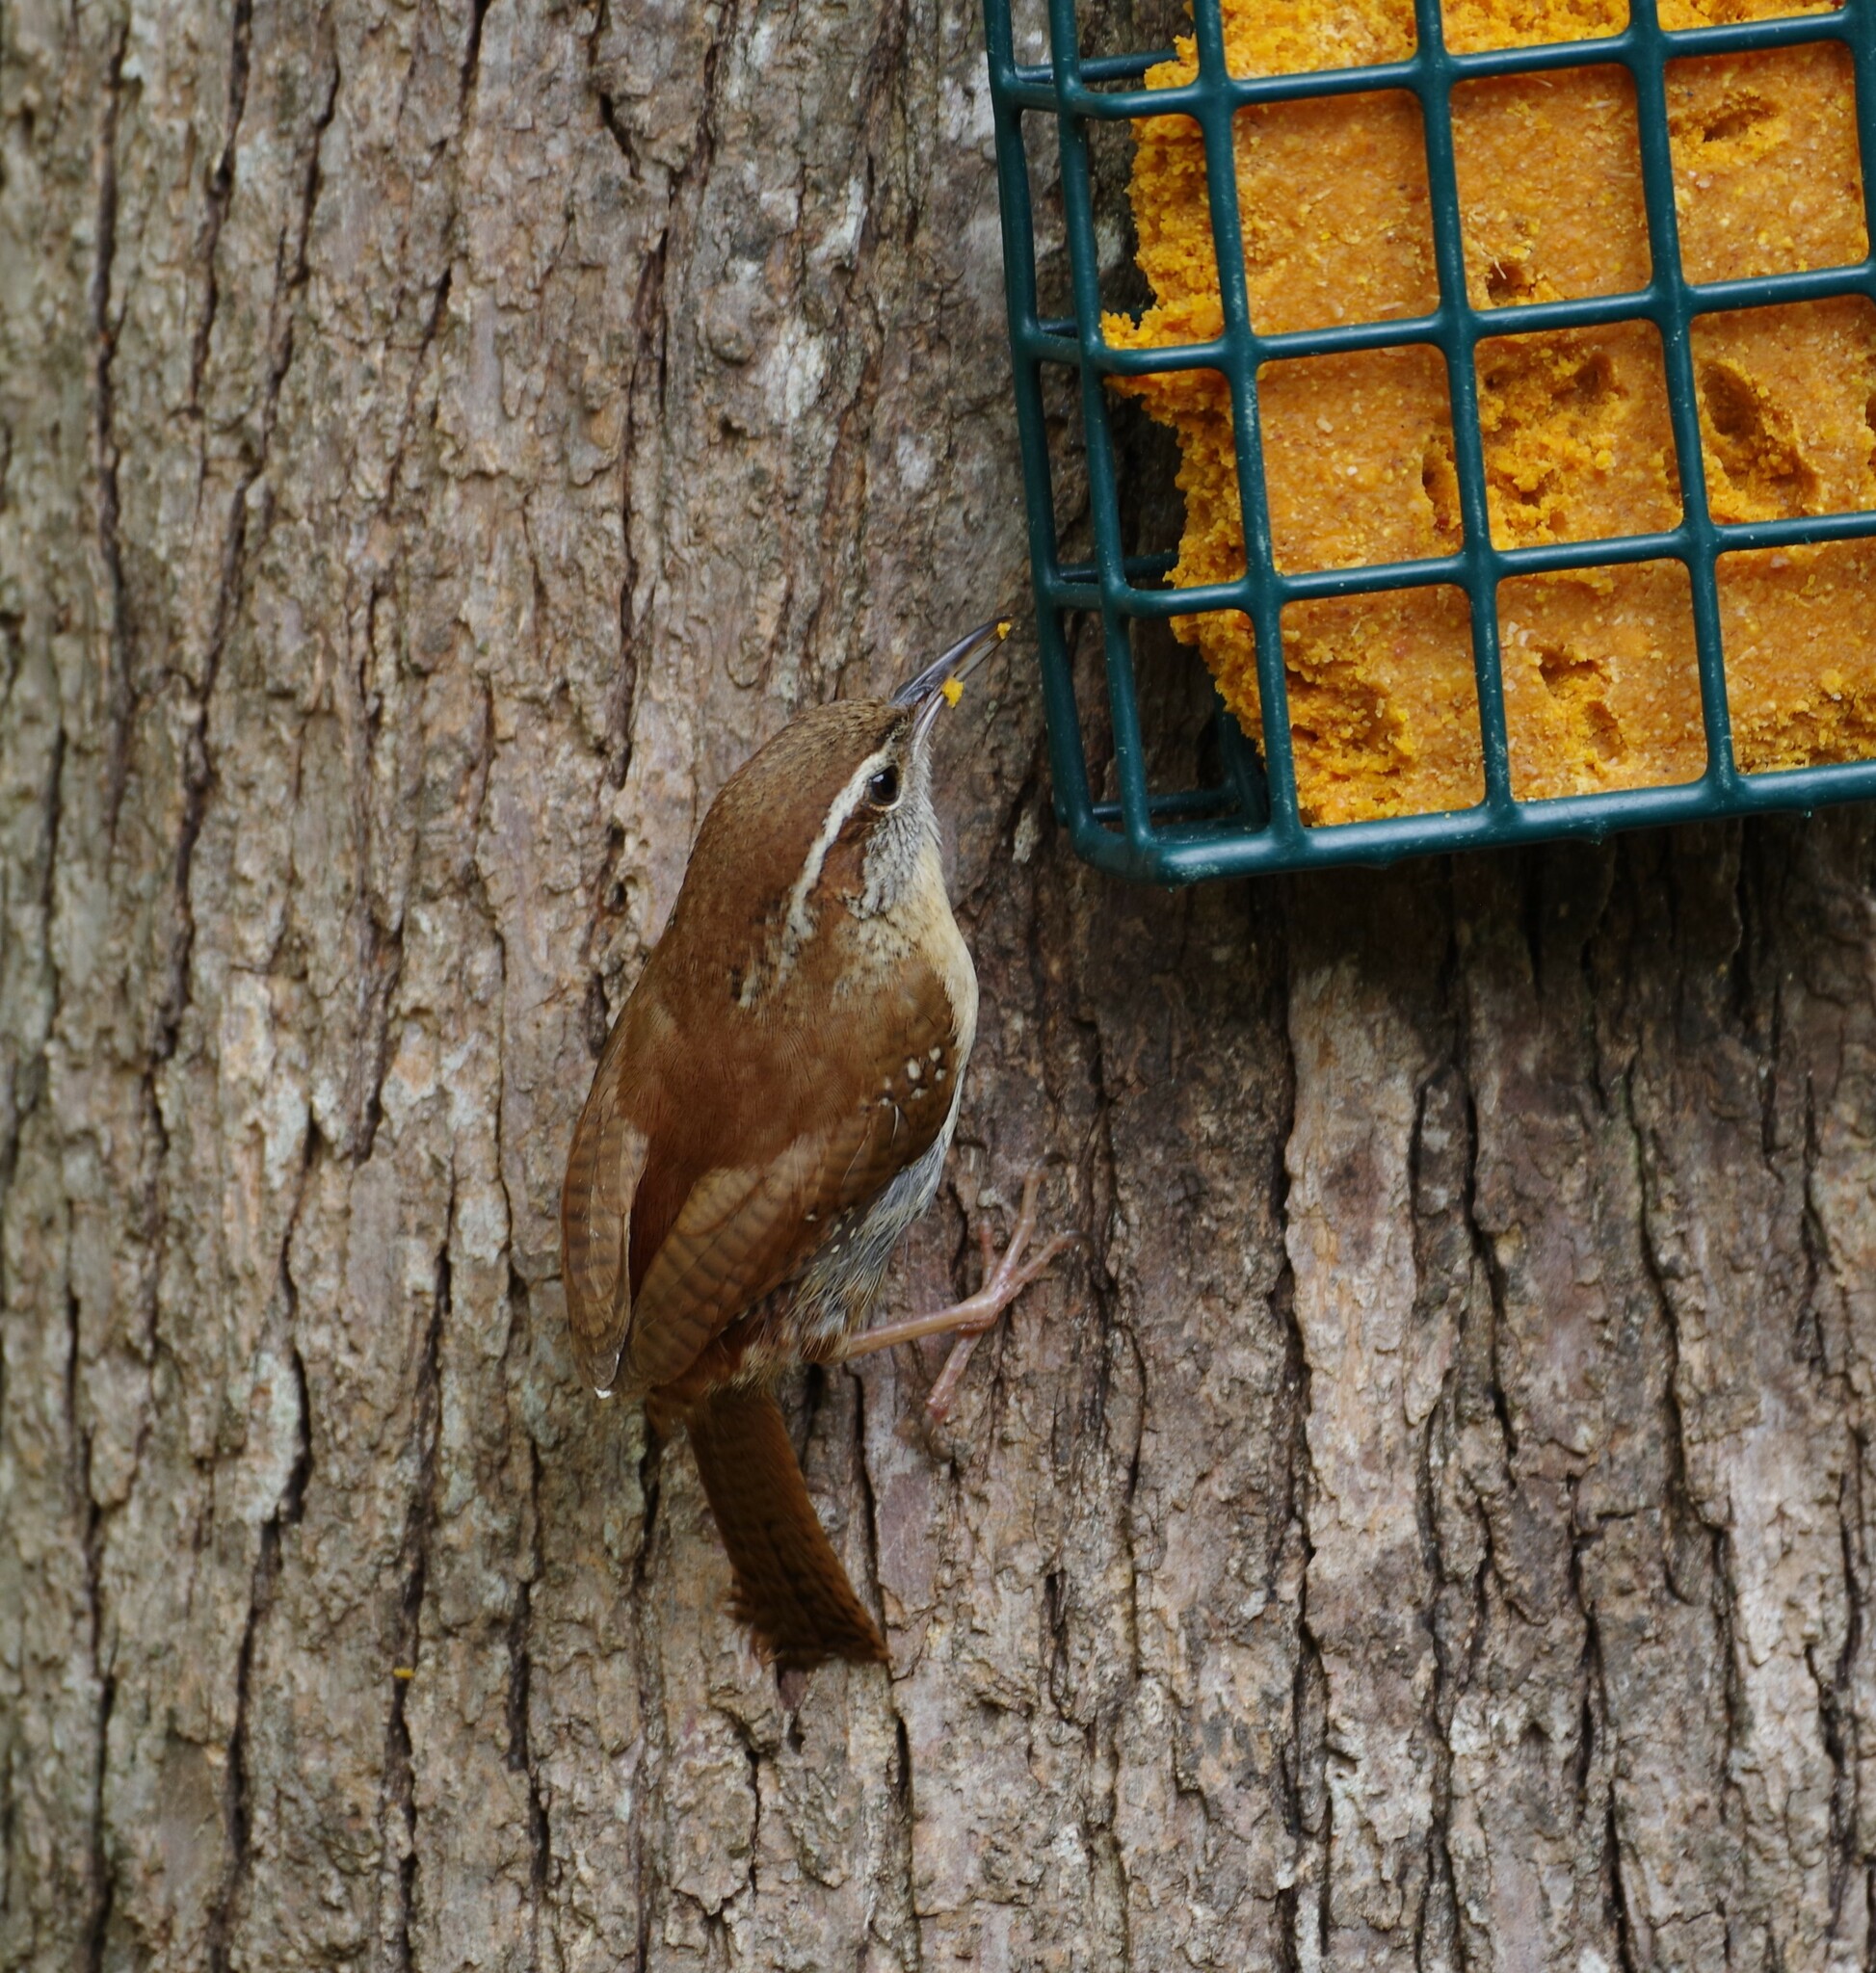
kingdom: Animalia
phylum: Chordata
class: Aves
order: Passeriformes
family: Troglodytidae
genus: Thryothorus
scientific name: Thryothorus ludovicianus
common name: Carolina wren
